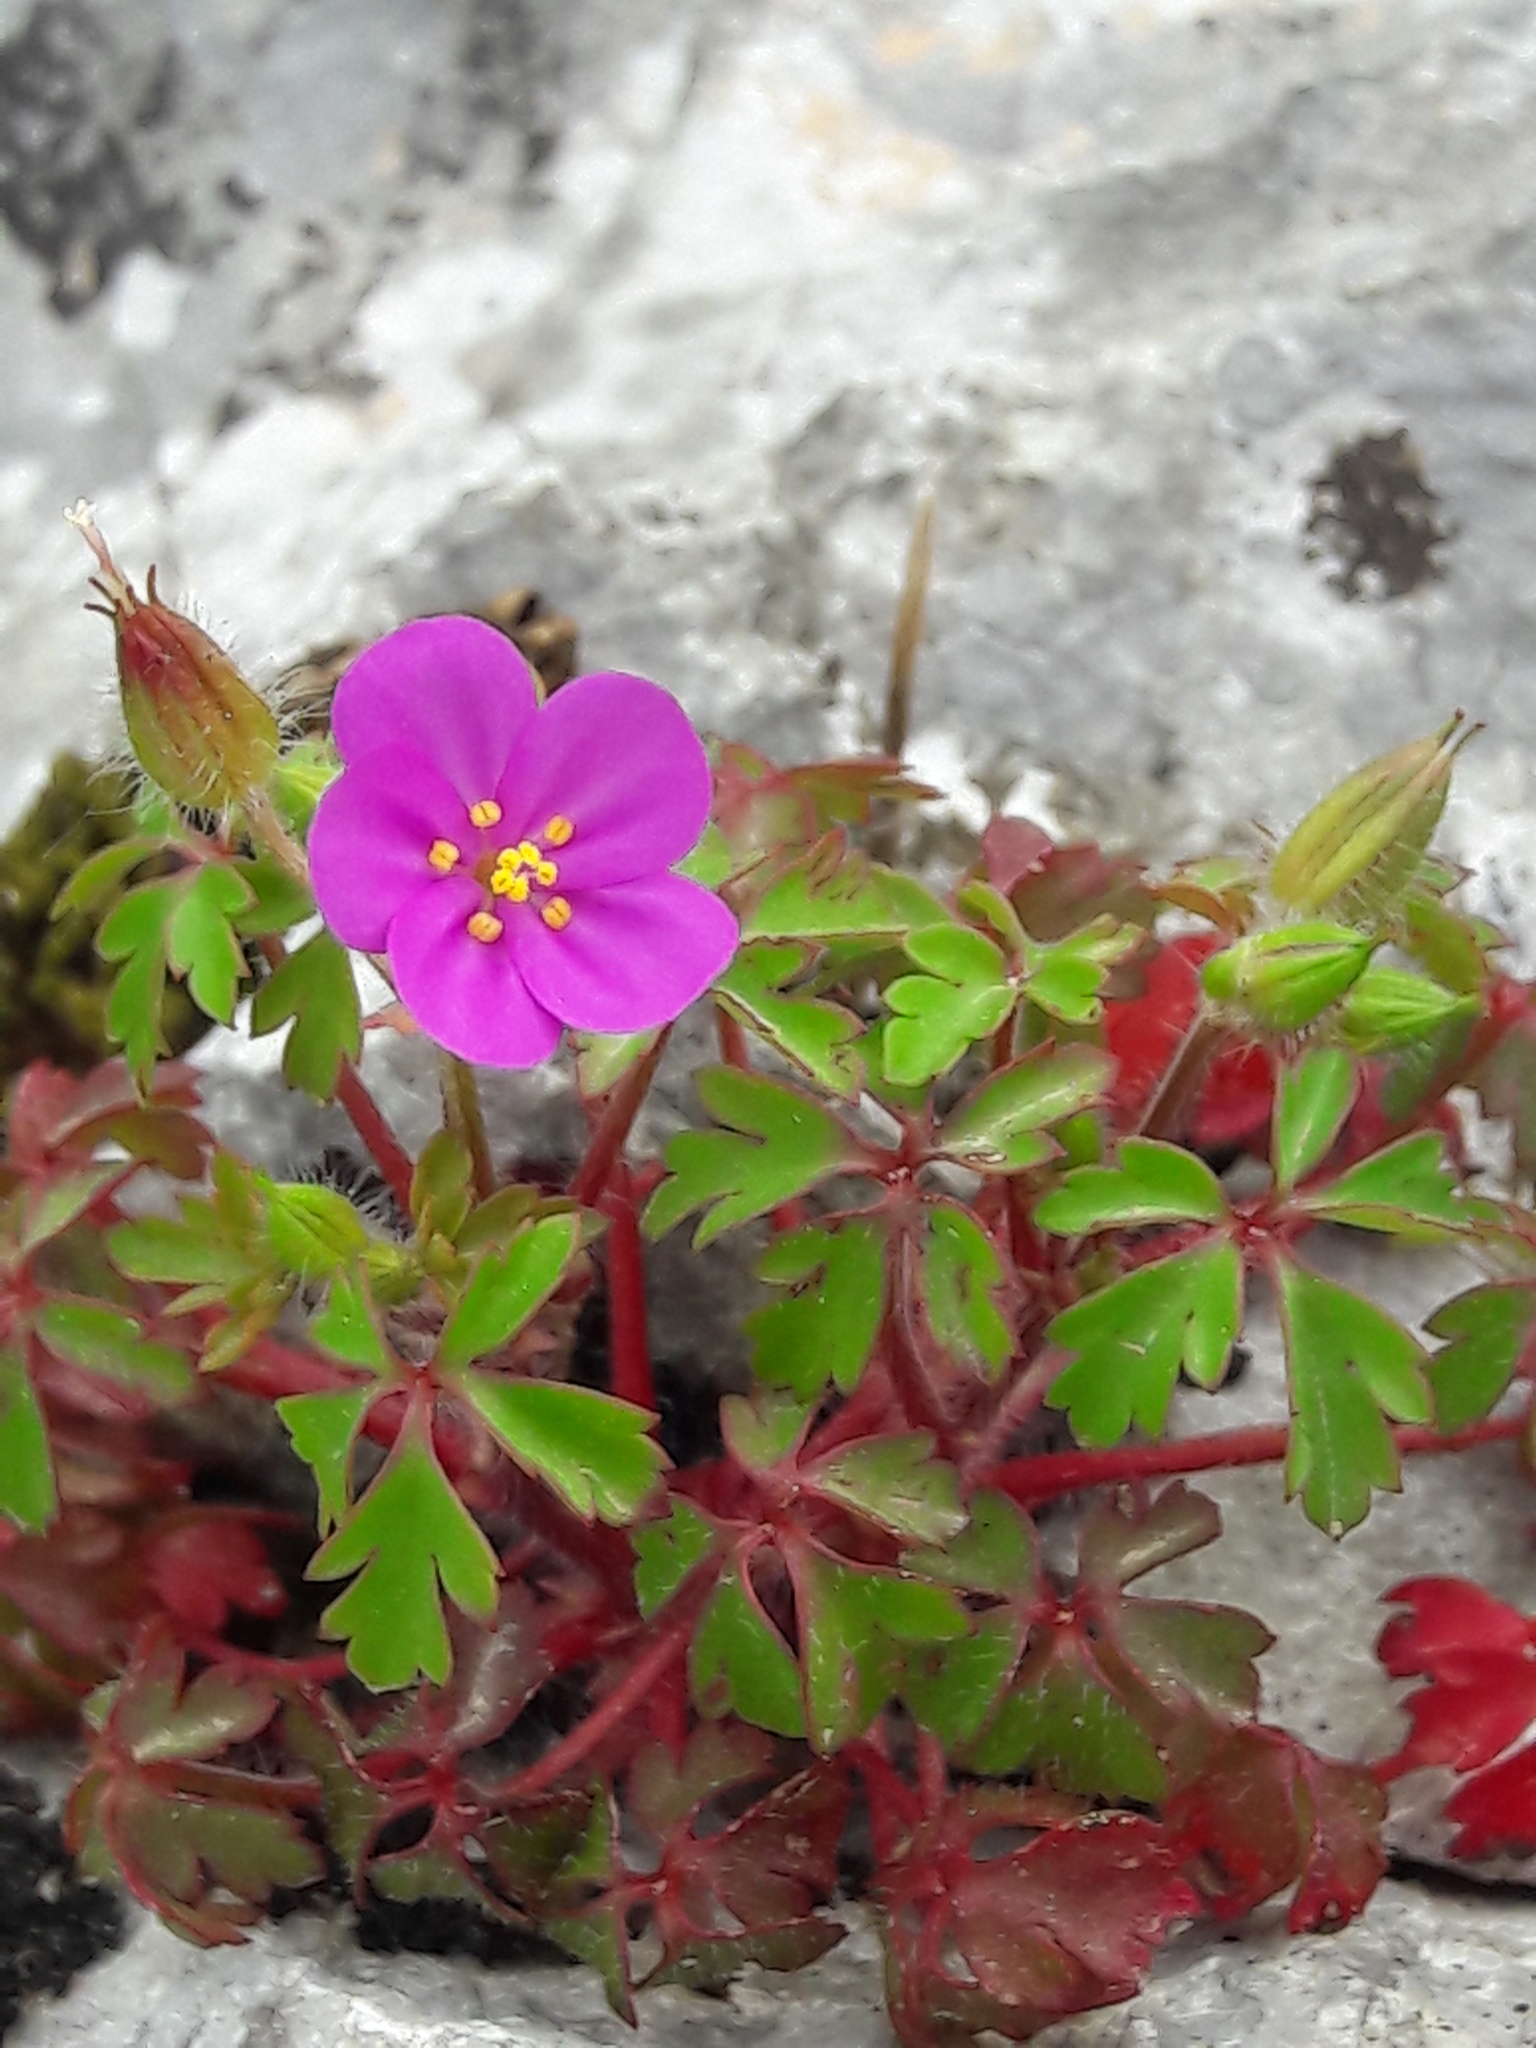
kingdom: Plantae
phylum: Tracheophyta
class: Magnoliopsida
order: Geraniales
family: Geraniaceae
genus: Geranium
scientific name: Geranium purpureum
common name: Little-robin
